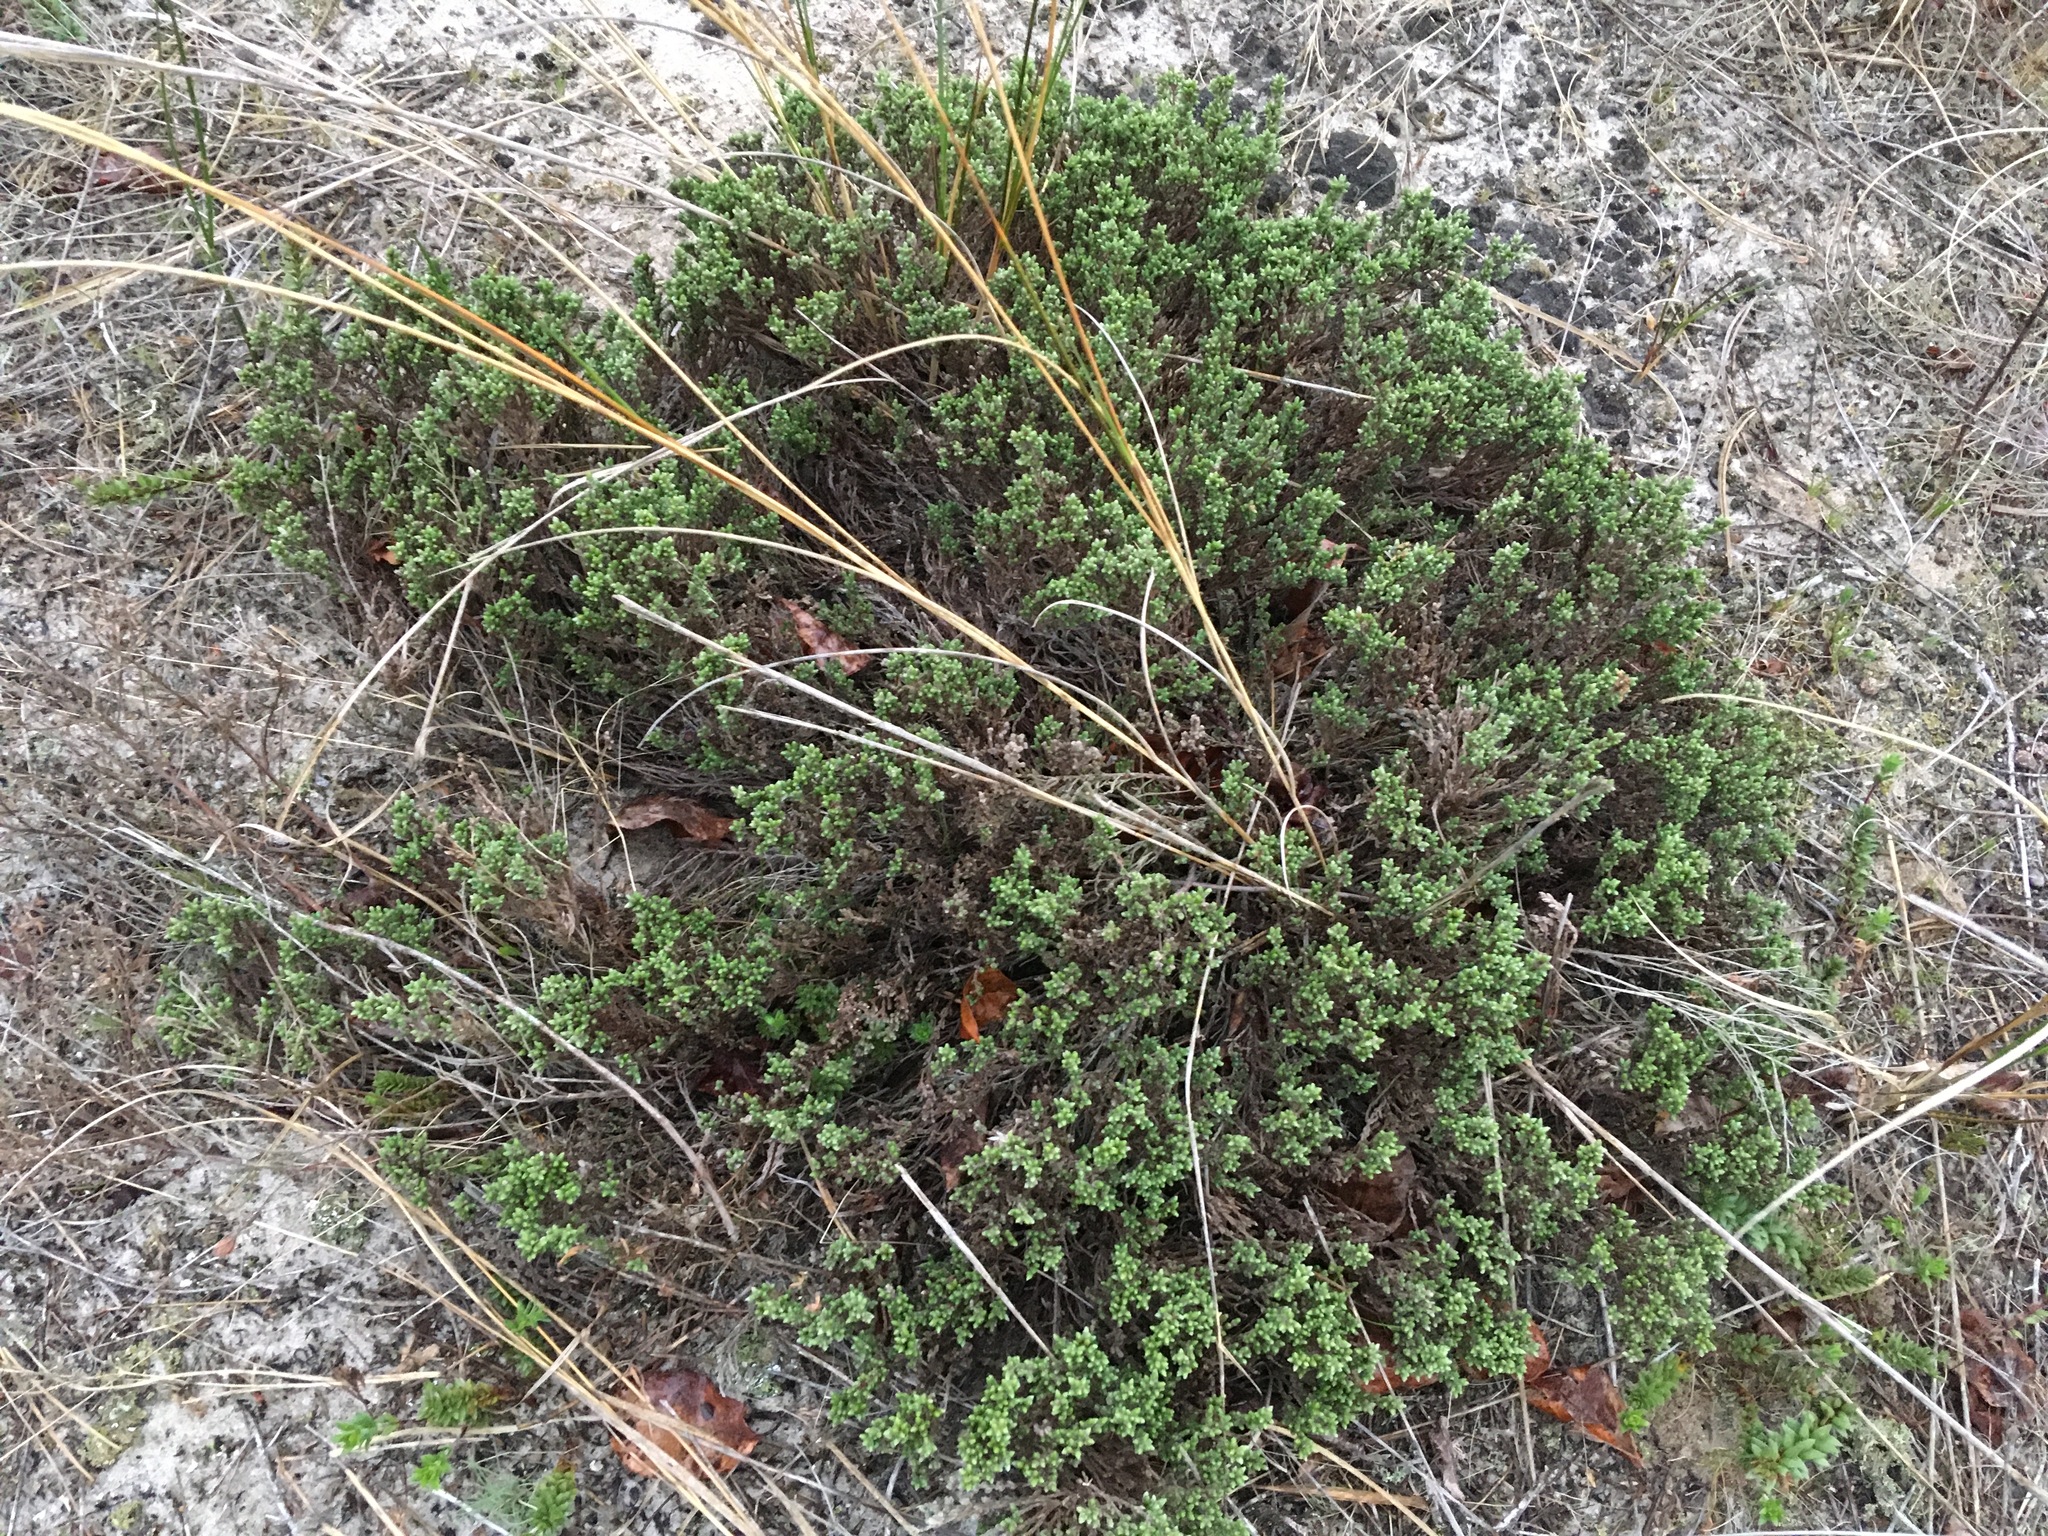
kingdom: Plantae
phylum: Tracheophyta
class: Magnoliopsida
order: Malvales
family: Cistaceae
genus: Hudsonia
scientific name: Hudsonia tomentosa
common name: Beach-heath
